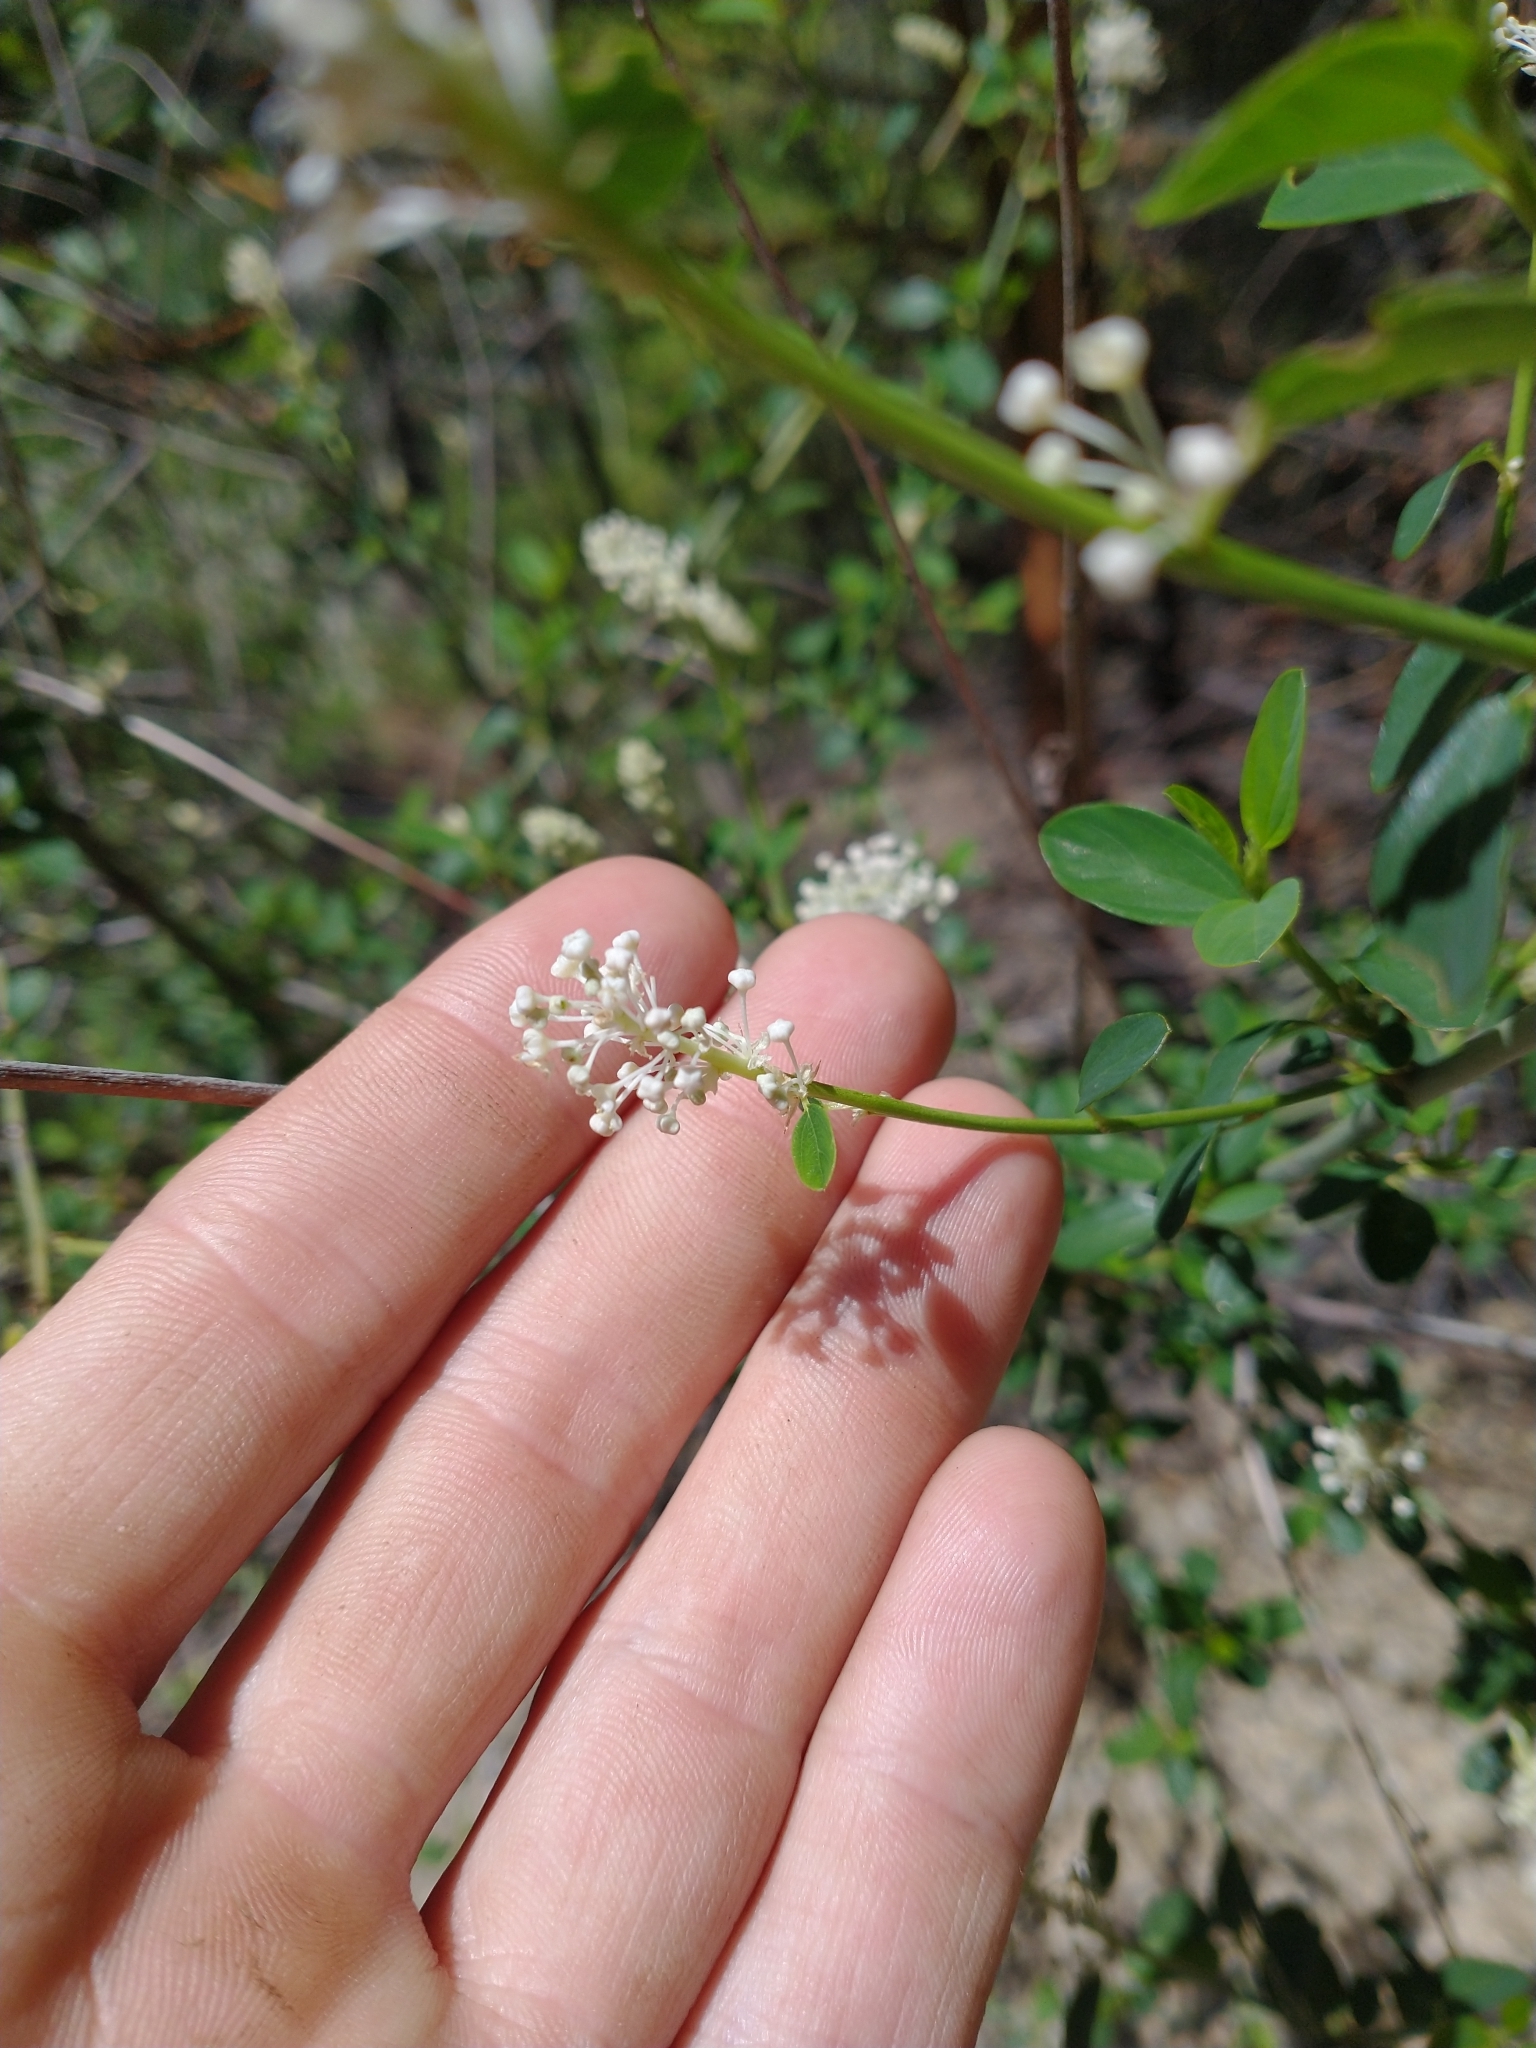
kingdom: Plantae
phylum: Tracheophyta
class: Magnoliopsida
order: Rosales
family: Rhamnaceae
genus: Ceanothus
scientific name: Ceanothus integerrimus
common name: Deerbrush ceanothus
